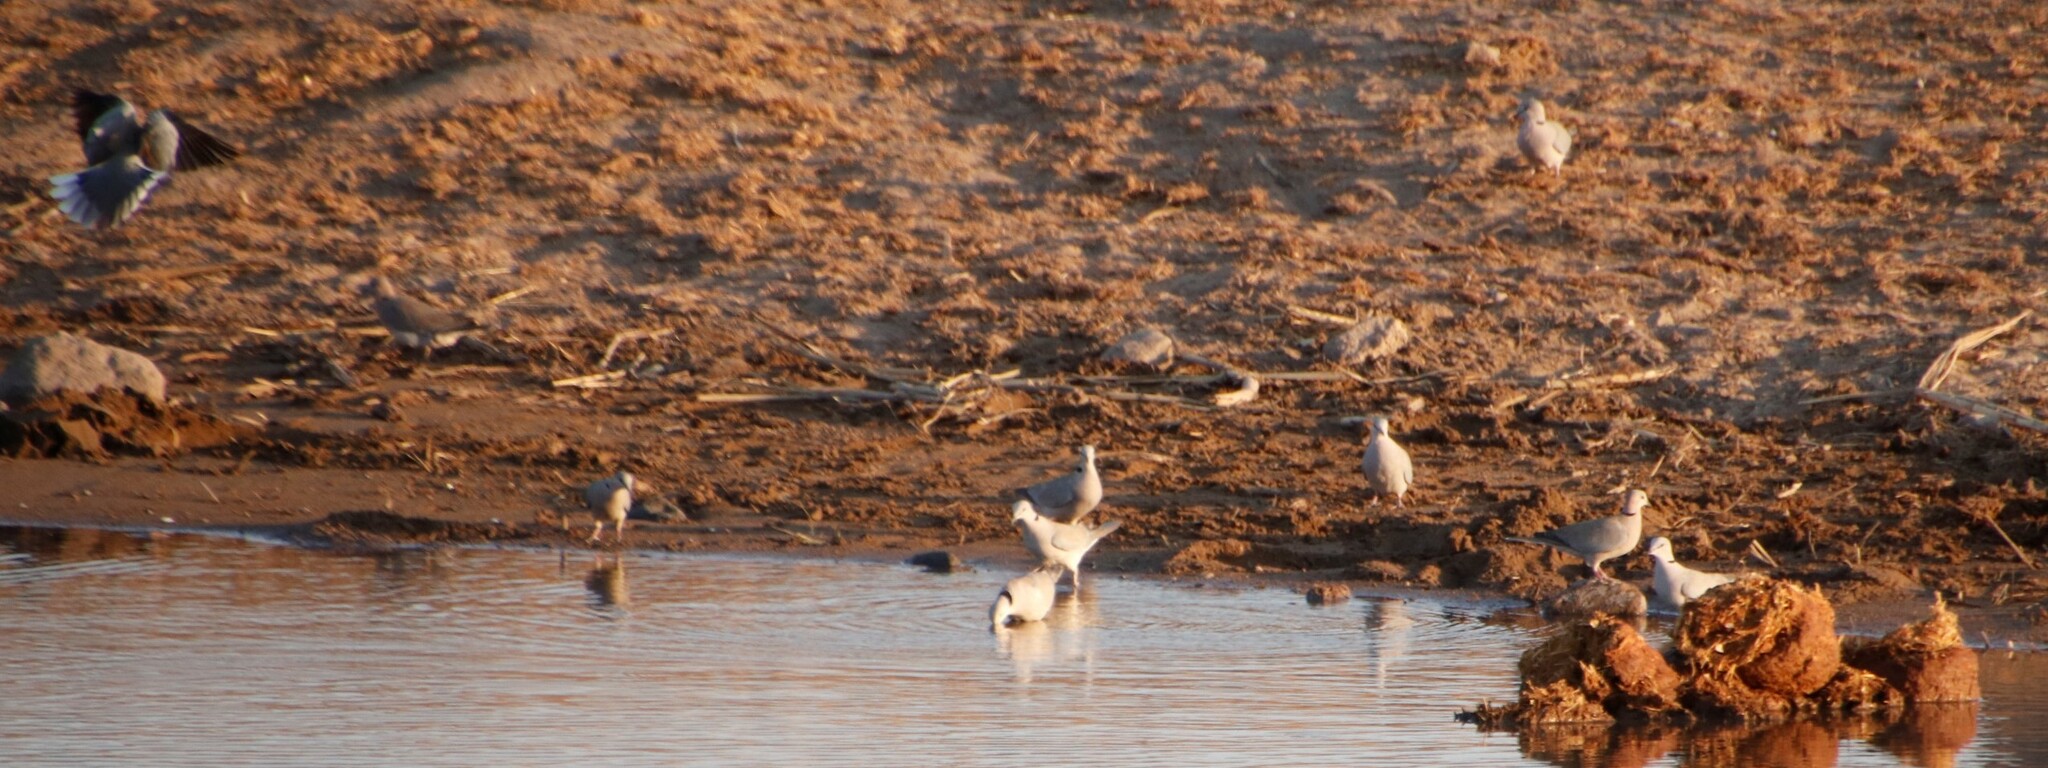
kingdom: Animalia
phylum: Chordata
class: Aves
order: Columbiformes
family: Columbidae
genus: Streptopelia
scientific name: Streptopelia capicola
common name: Ring-necked dove
